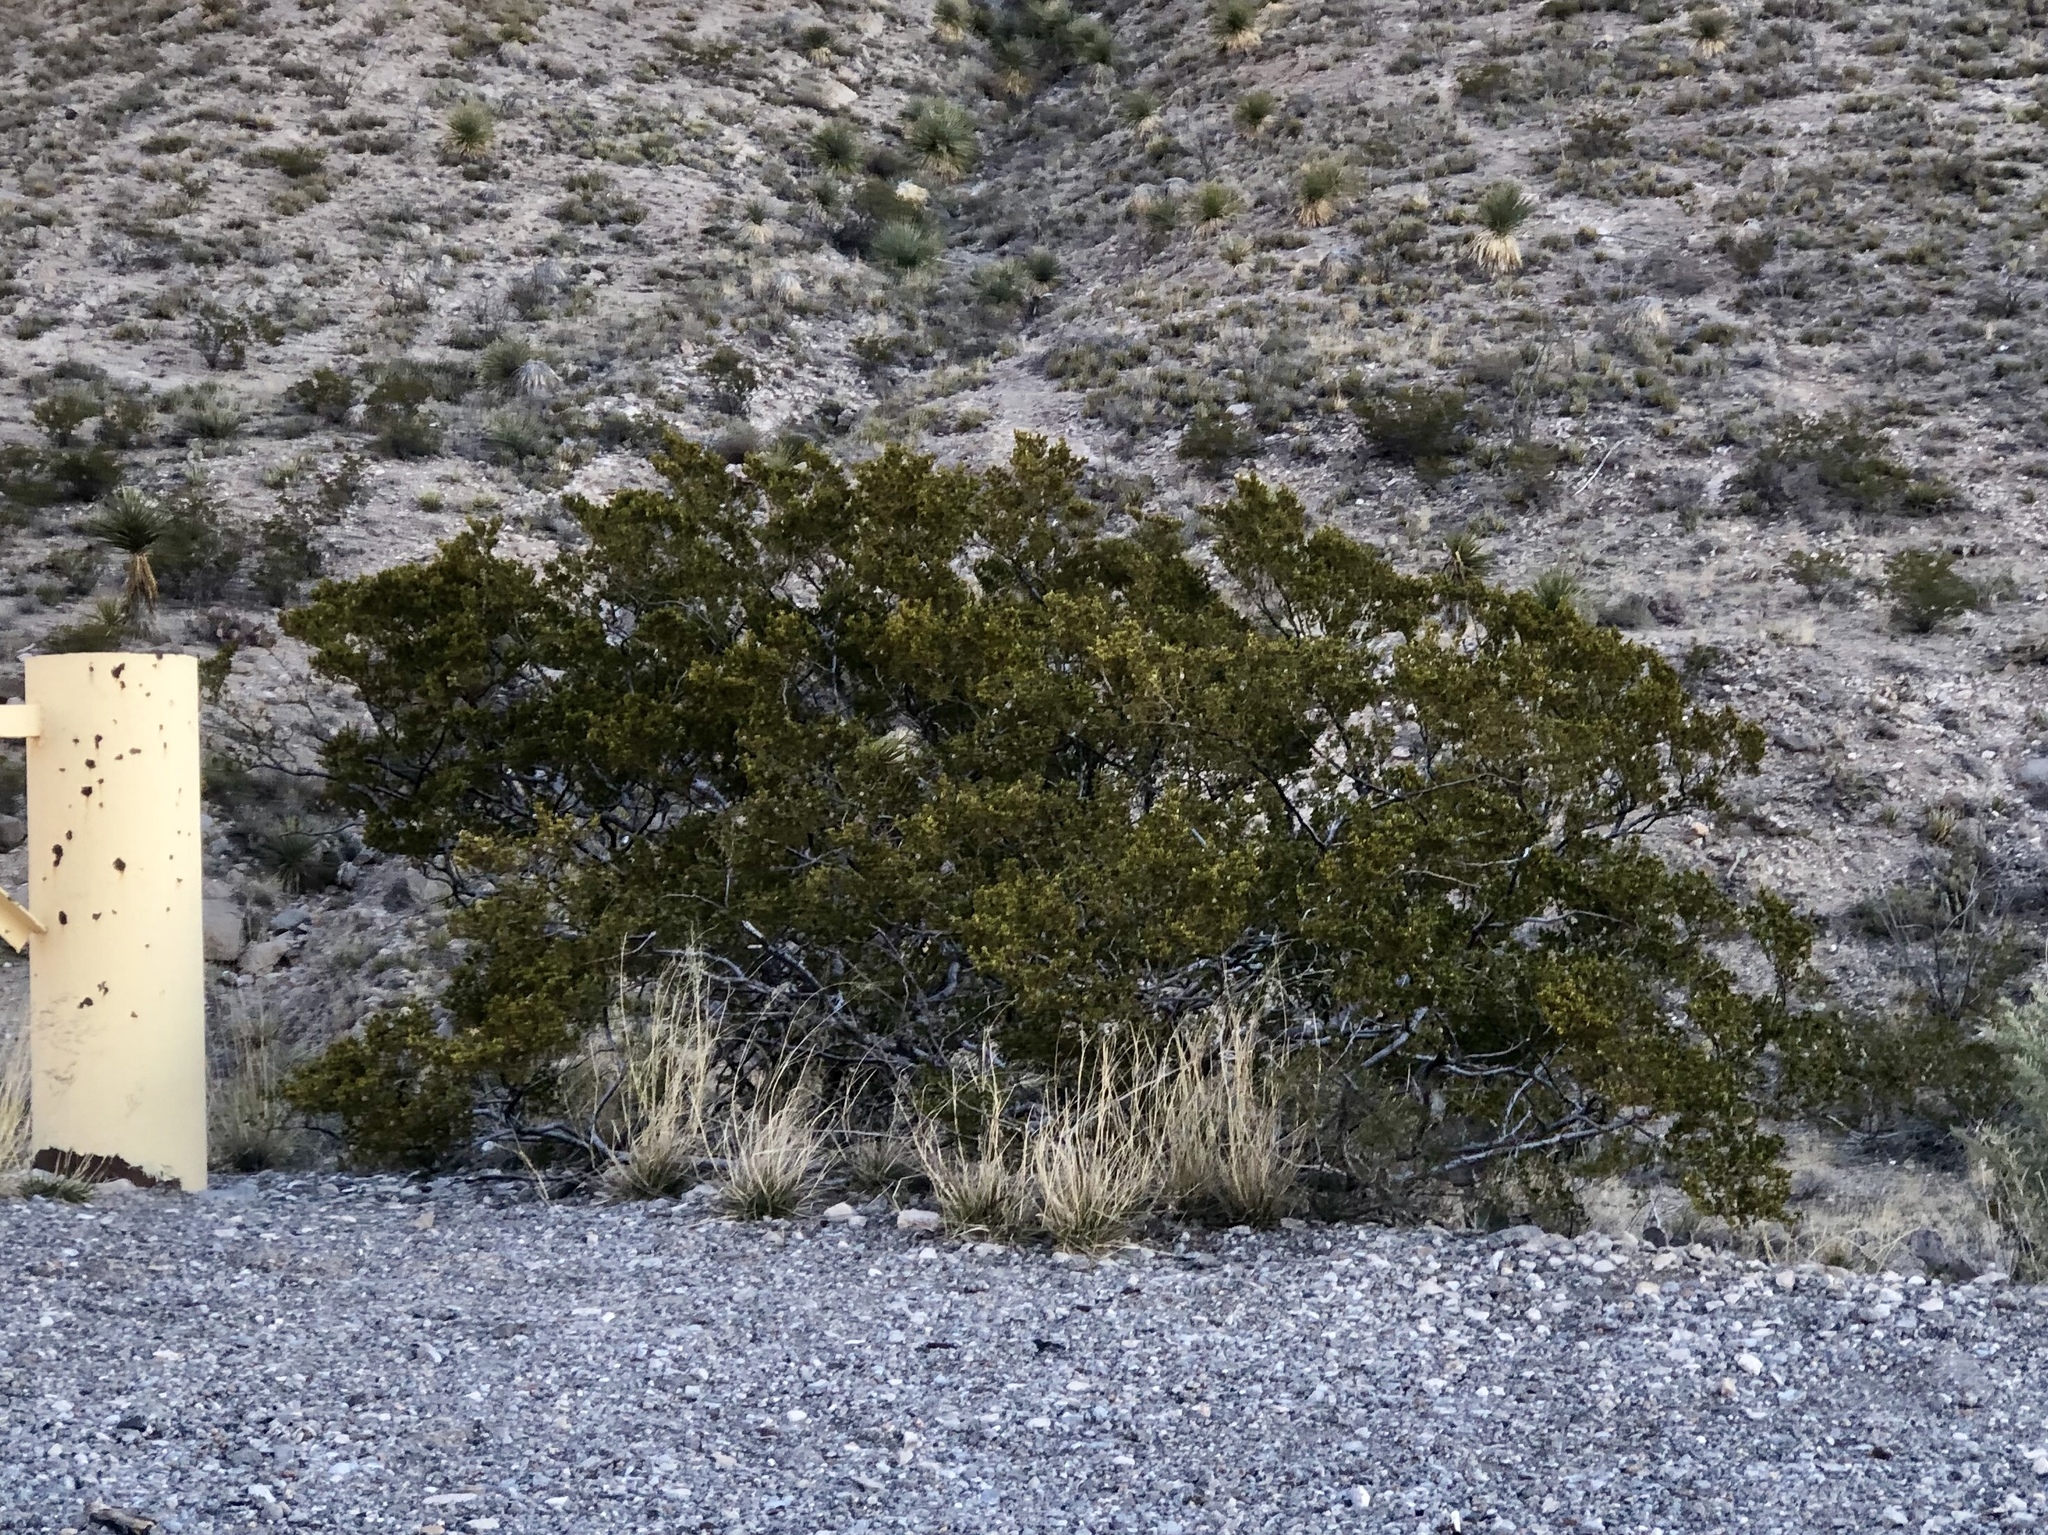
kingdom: Plantae
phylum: Tracheophyta
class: Magnoliopsida
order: Zygophyllales
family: Zygophyllaceae
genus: Larrea
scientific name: Larrea tridentata
